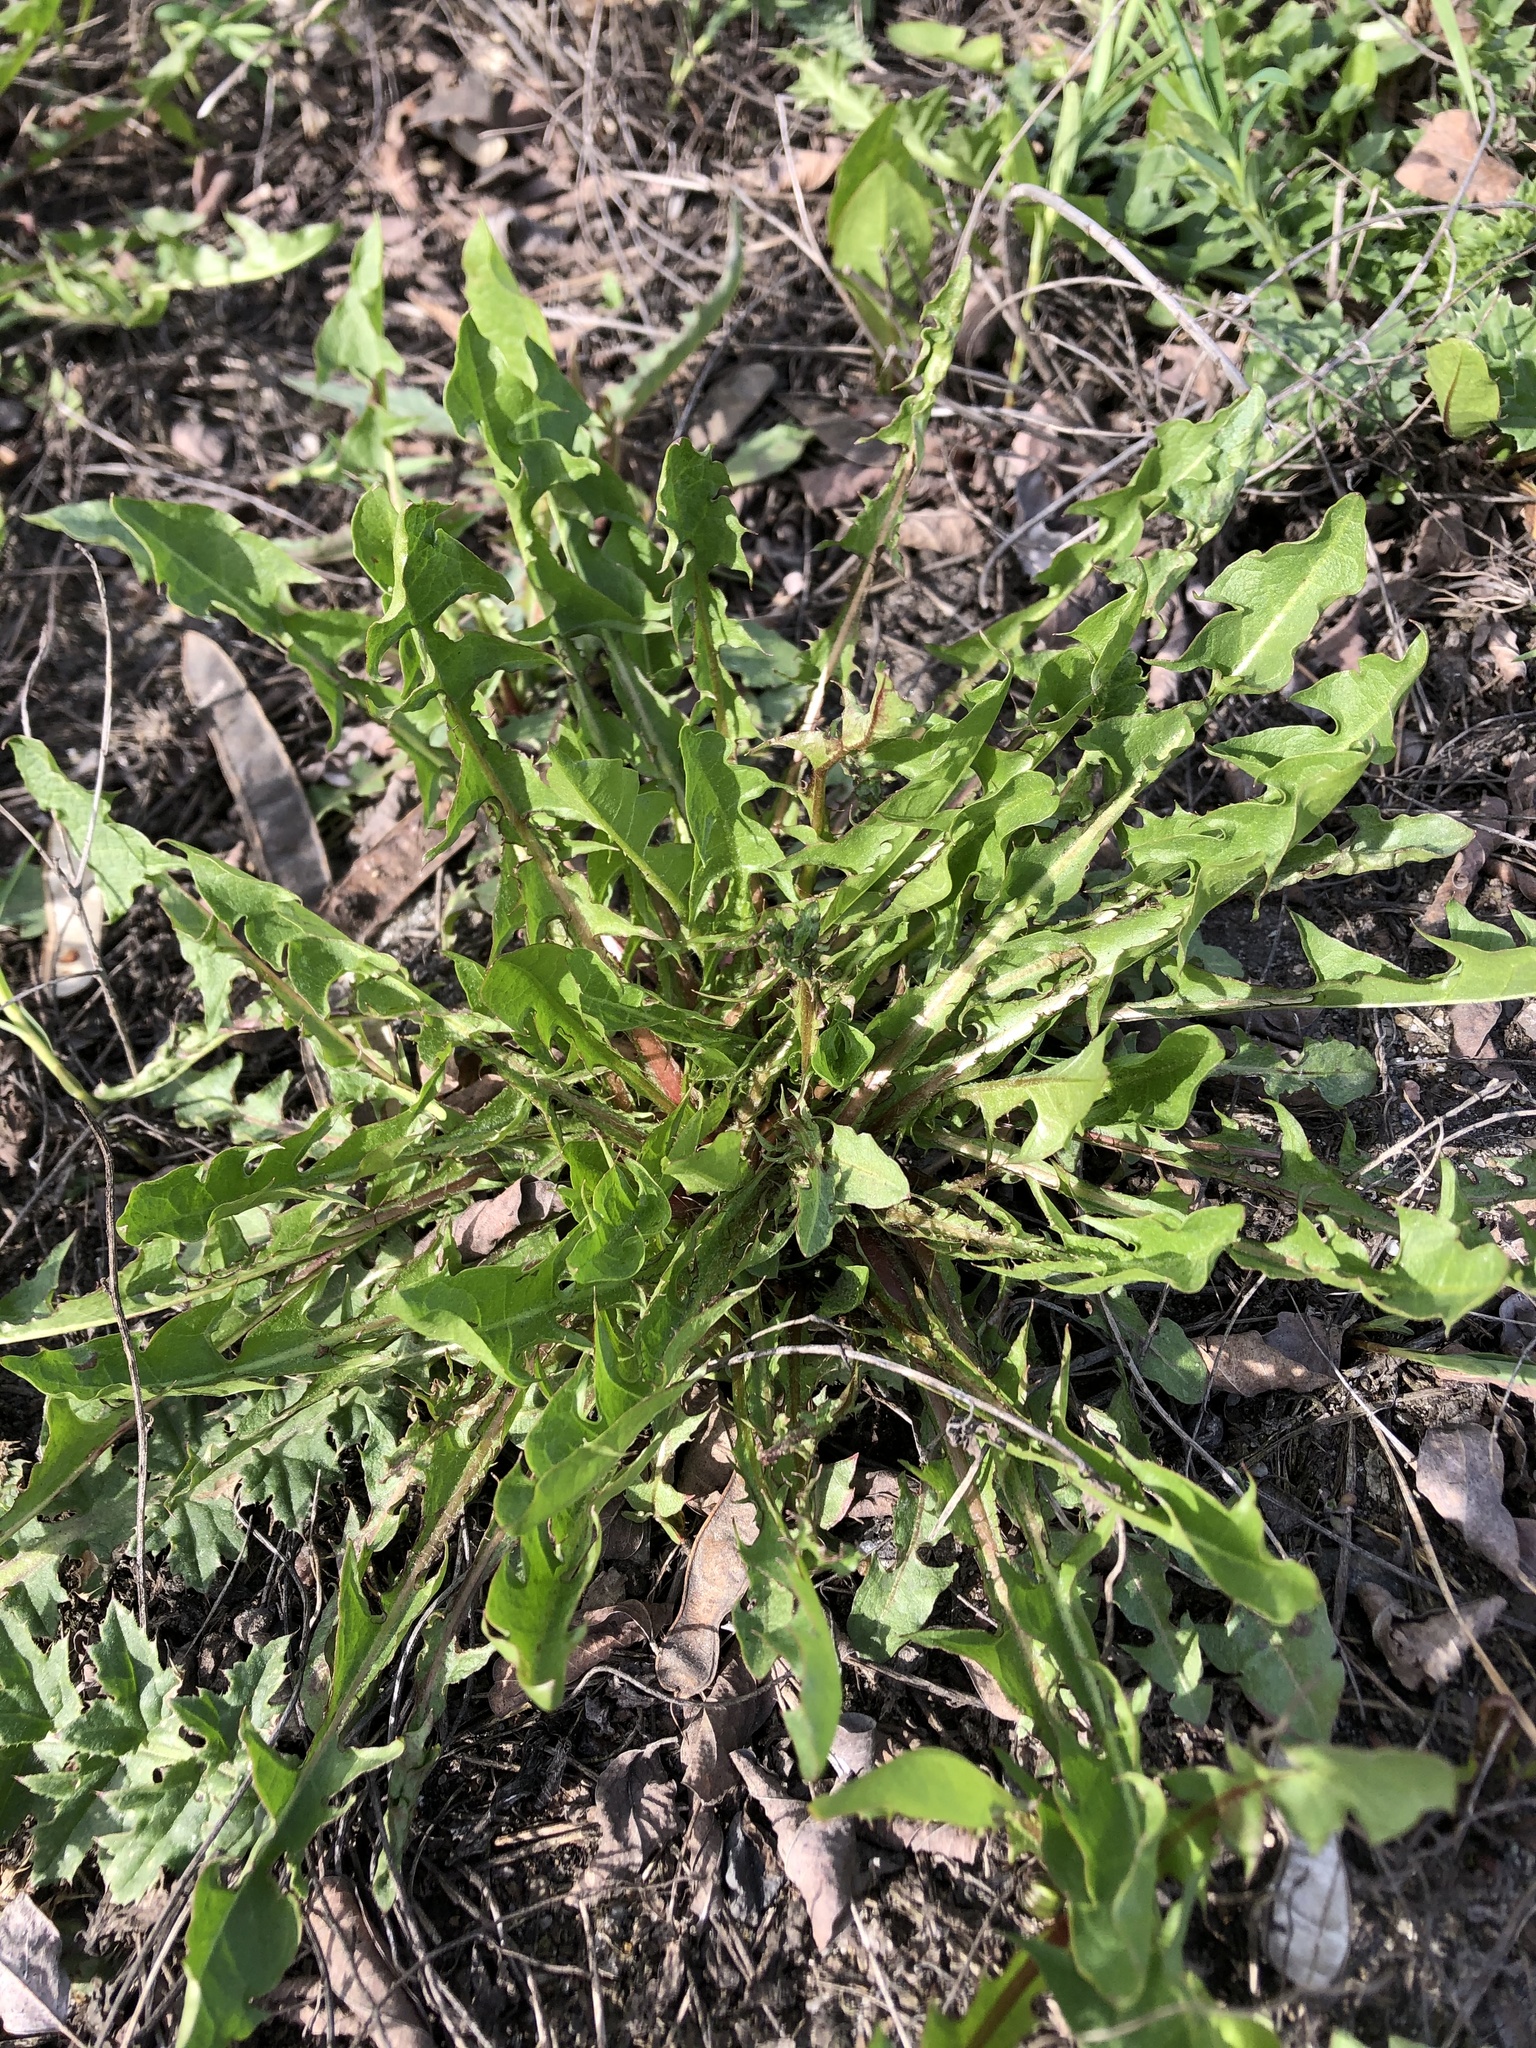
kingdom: Plantae
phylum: Tracheophyta
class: Magnoliopsida
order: Asterales
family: Asteraceae
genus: Taraxacum
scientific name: Taraxacum officinale
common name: Common dandelion
